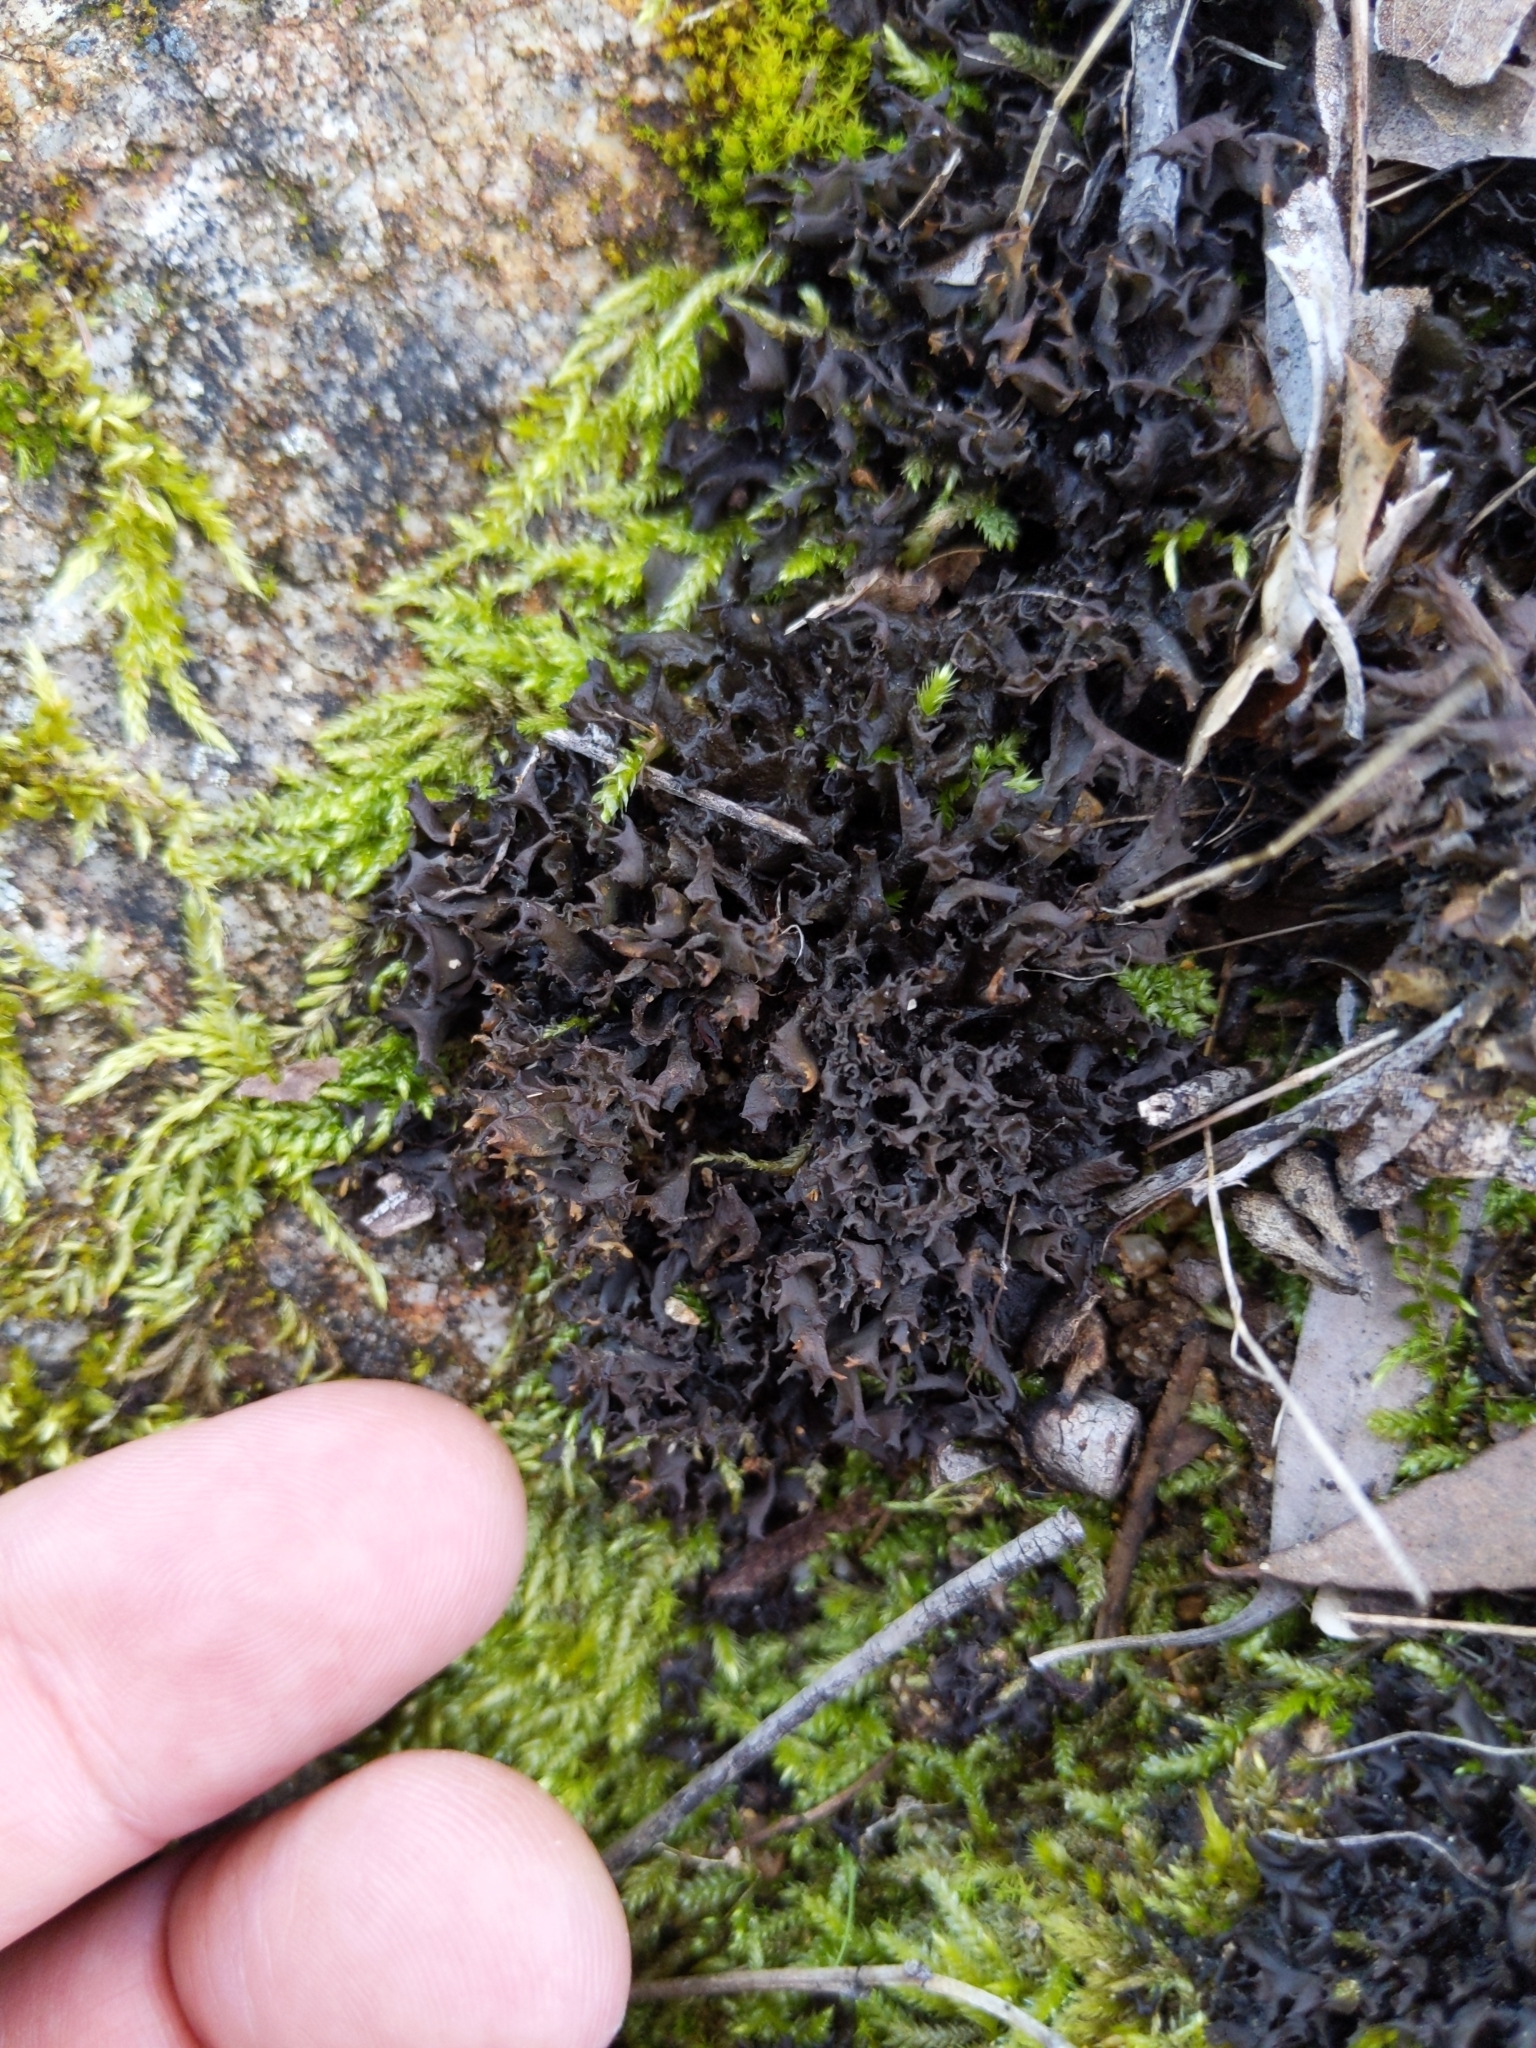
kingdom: Fungi
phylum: Ascomycota
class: Lecanoromycetes
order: Peltigerales
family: Collemataceae
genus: Scytinium
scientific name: Scytinium palmatum
